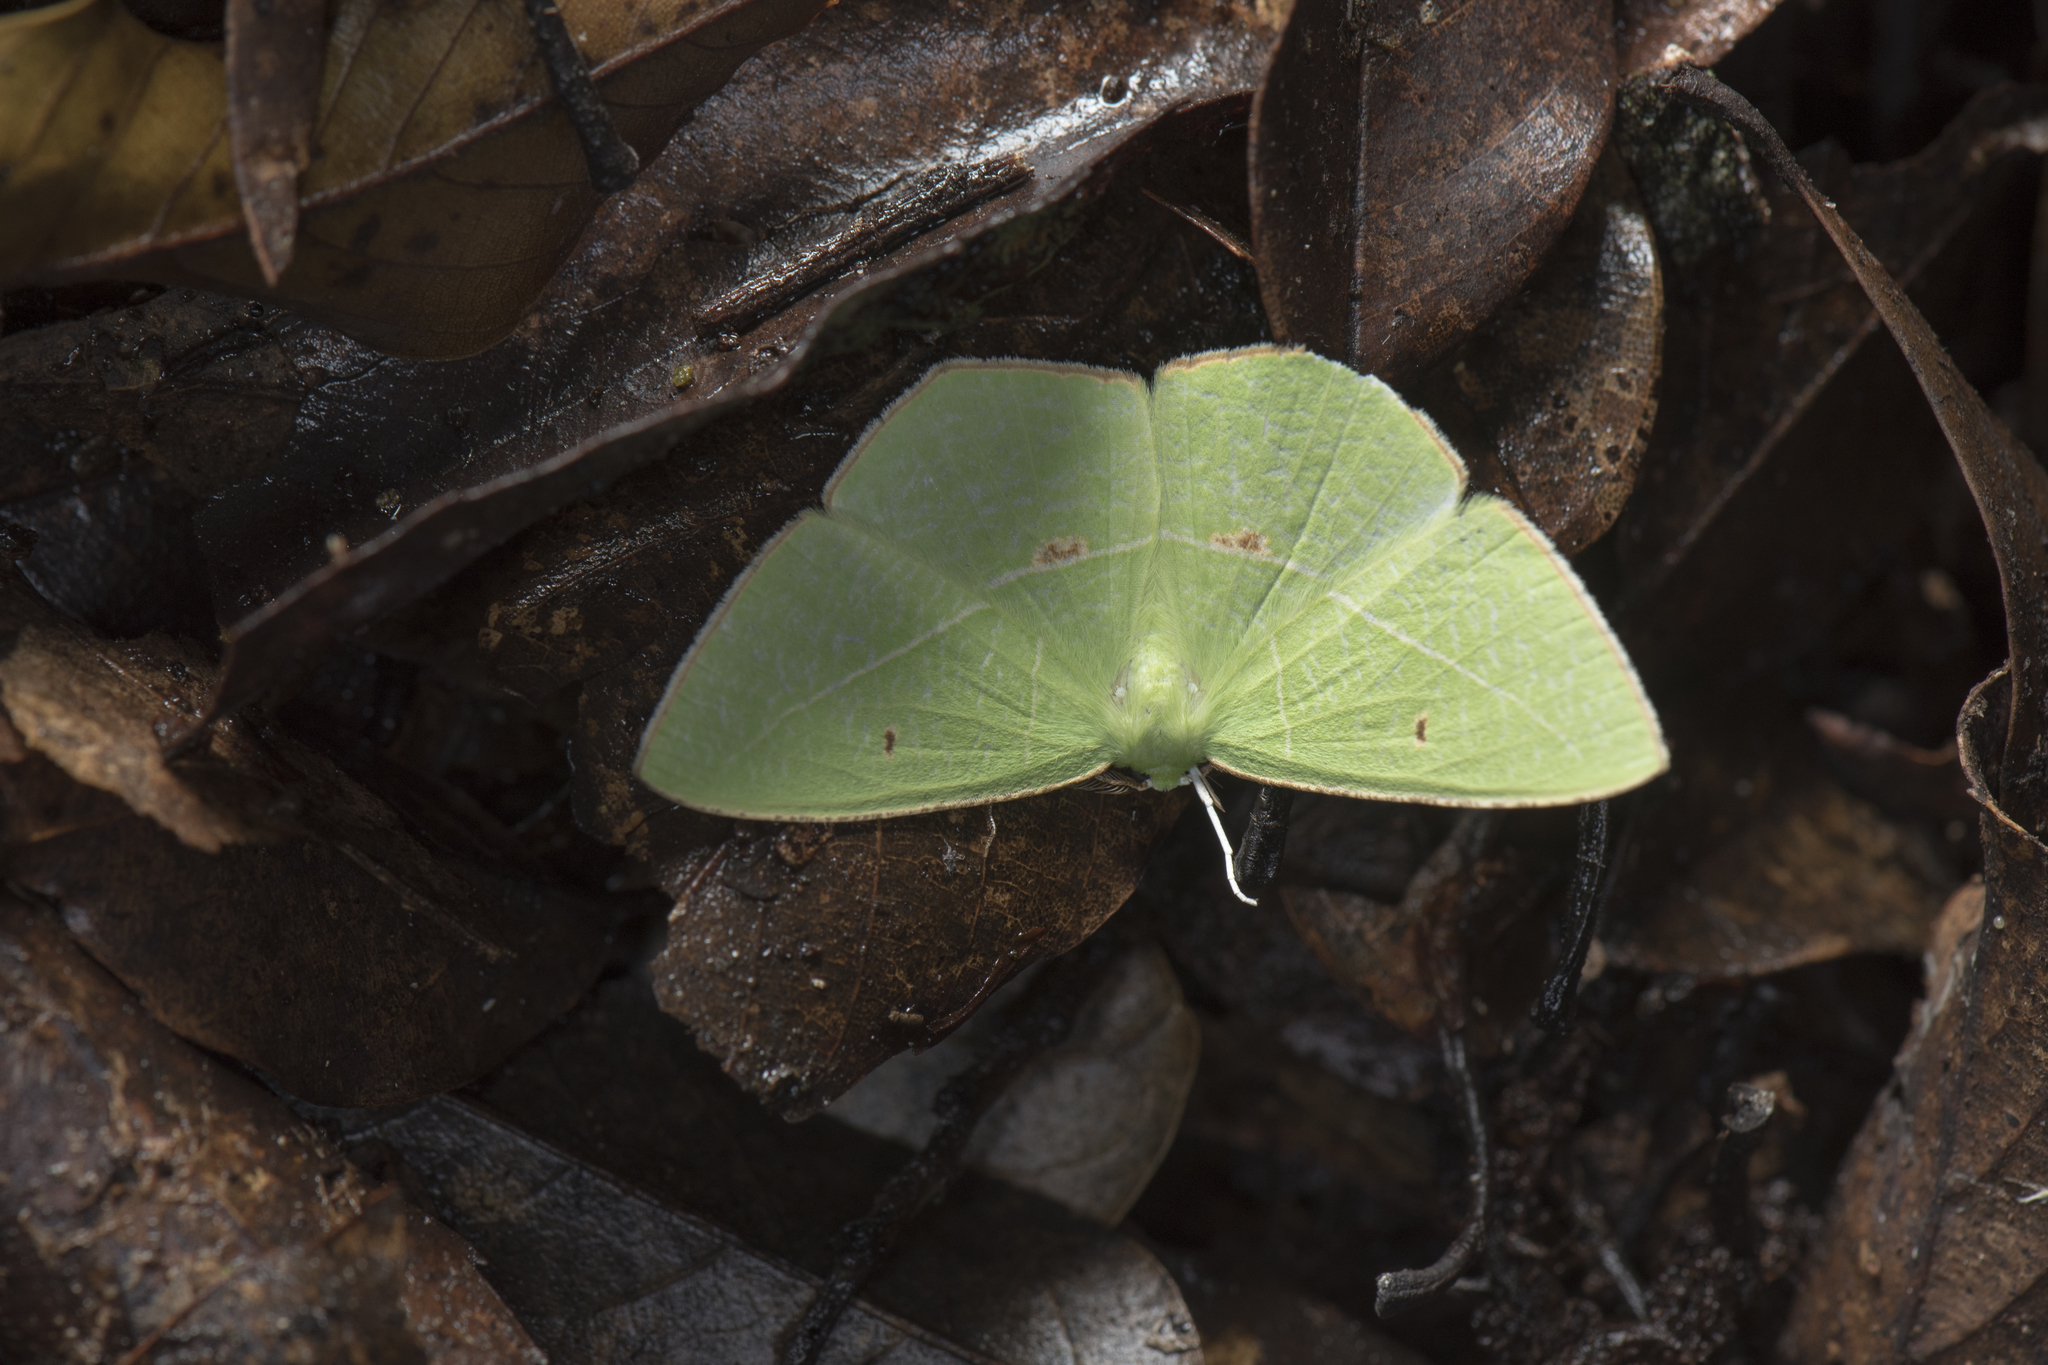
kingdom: Animalia
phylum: Arthropoda
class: Insecta
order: Lepidoptera
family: Geometridae
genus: Tanaoctenia
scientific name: Tanaoctenia haliaria
